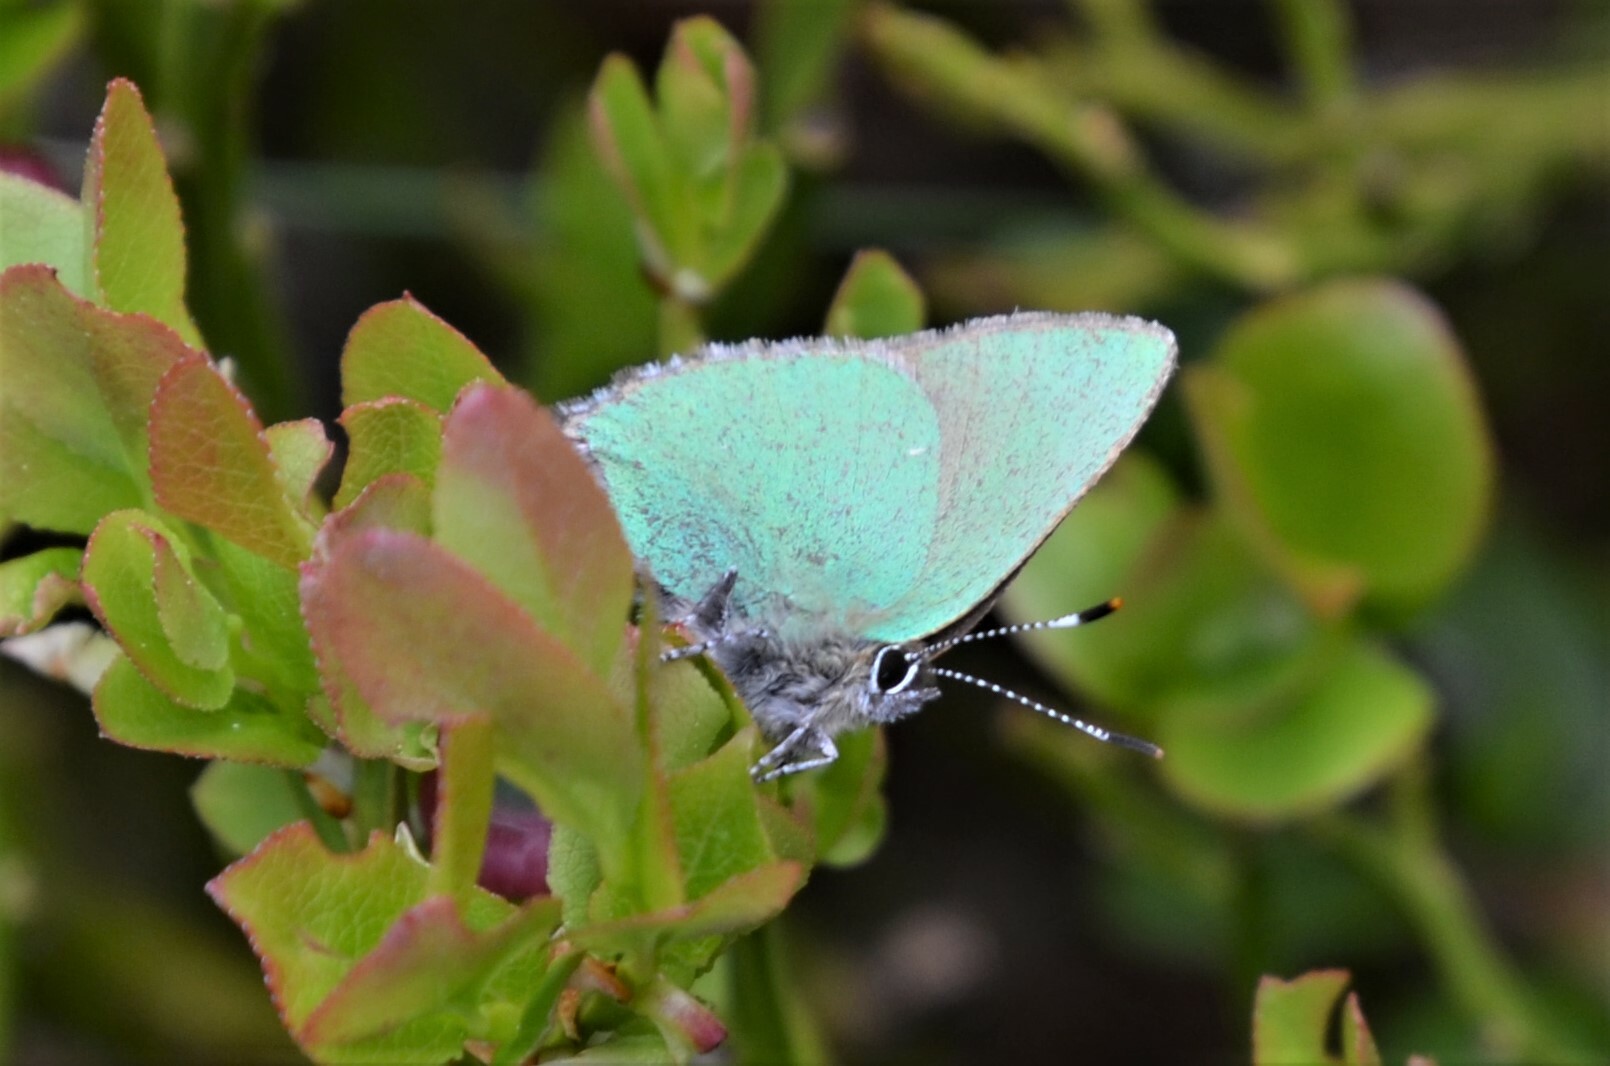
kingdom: Animalia
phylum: Arthropoda
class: Insecta
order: Lepidoptera
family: Lycaenidae
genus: Callophrys
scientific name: Callophrys rubi
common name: Green hairstreak
